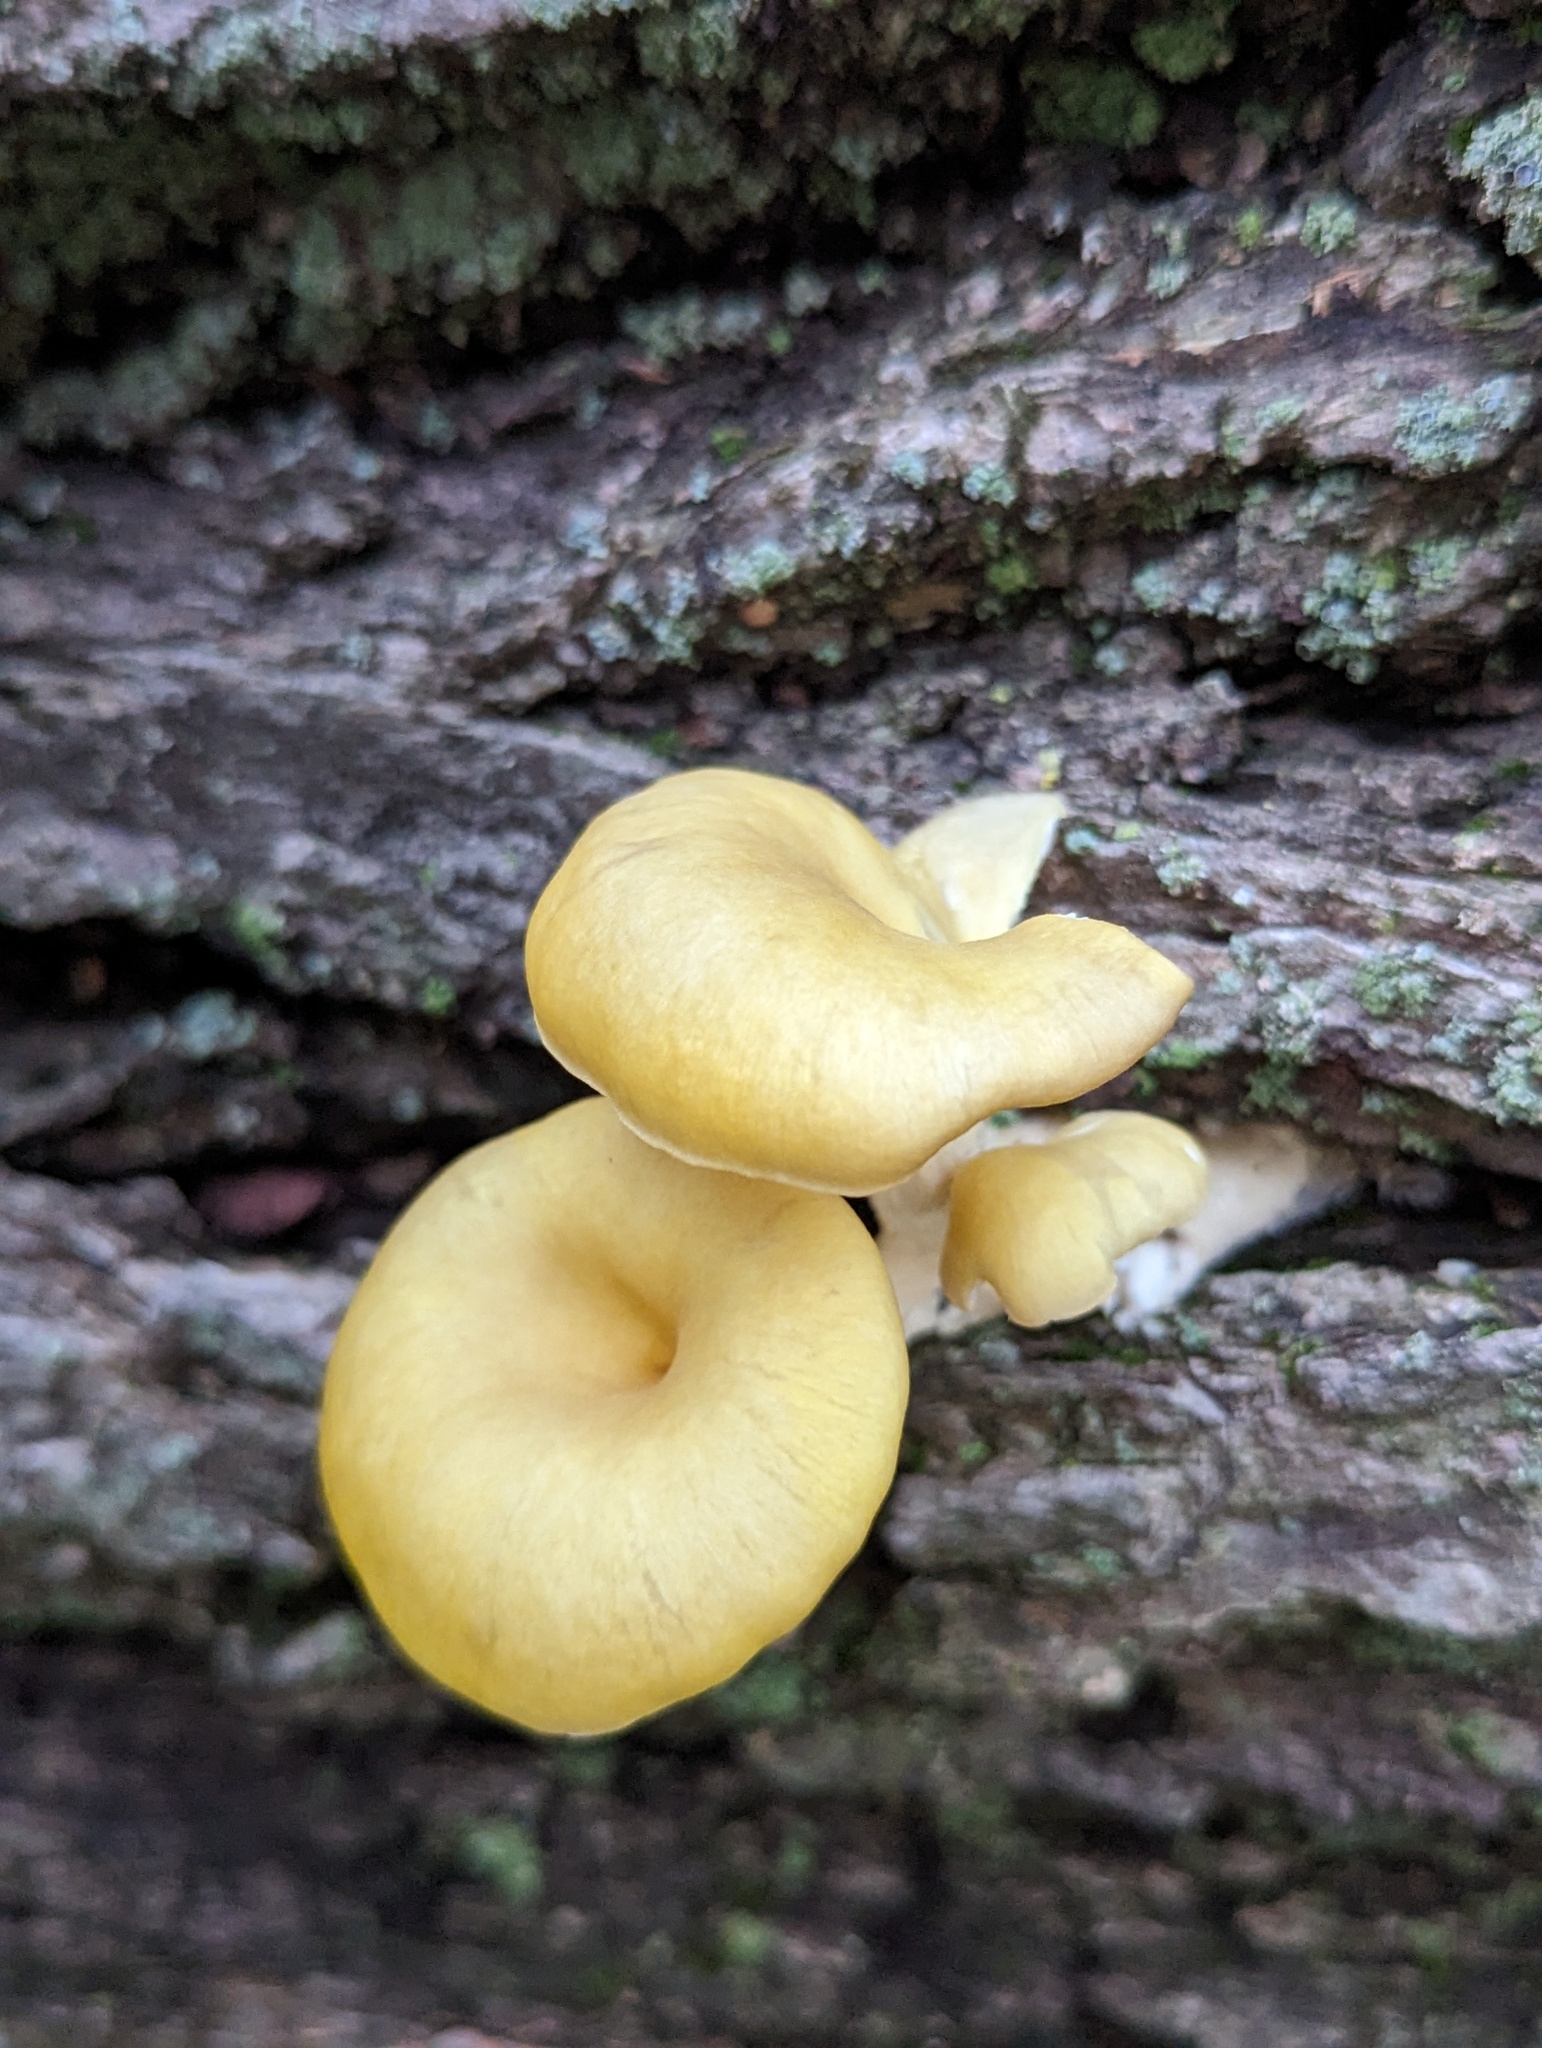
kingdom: Fungi
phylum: Basidiomycota
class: Agaricomycetes
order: Agaricales
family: Pleurotaceae
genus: Pleurotus
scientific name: Pleurotus citrinopileatus
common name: Golden oyster mushroom
